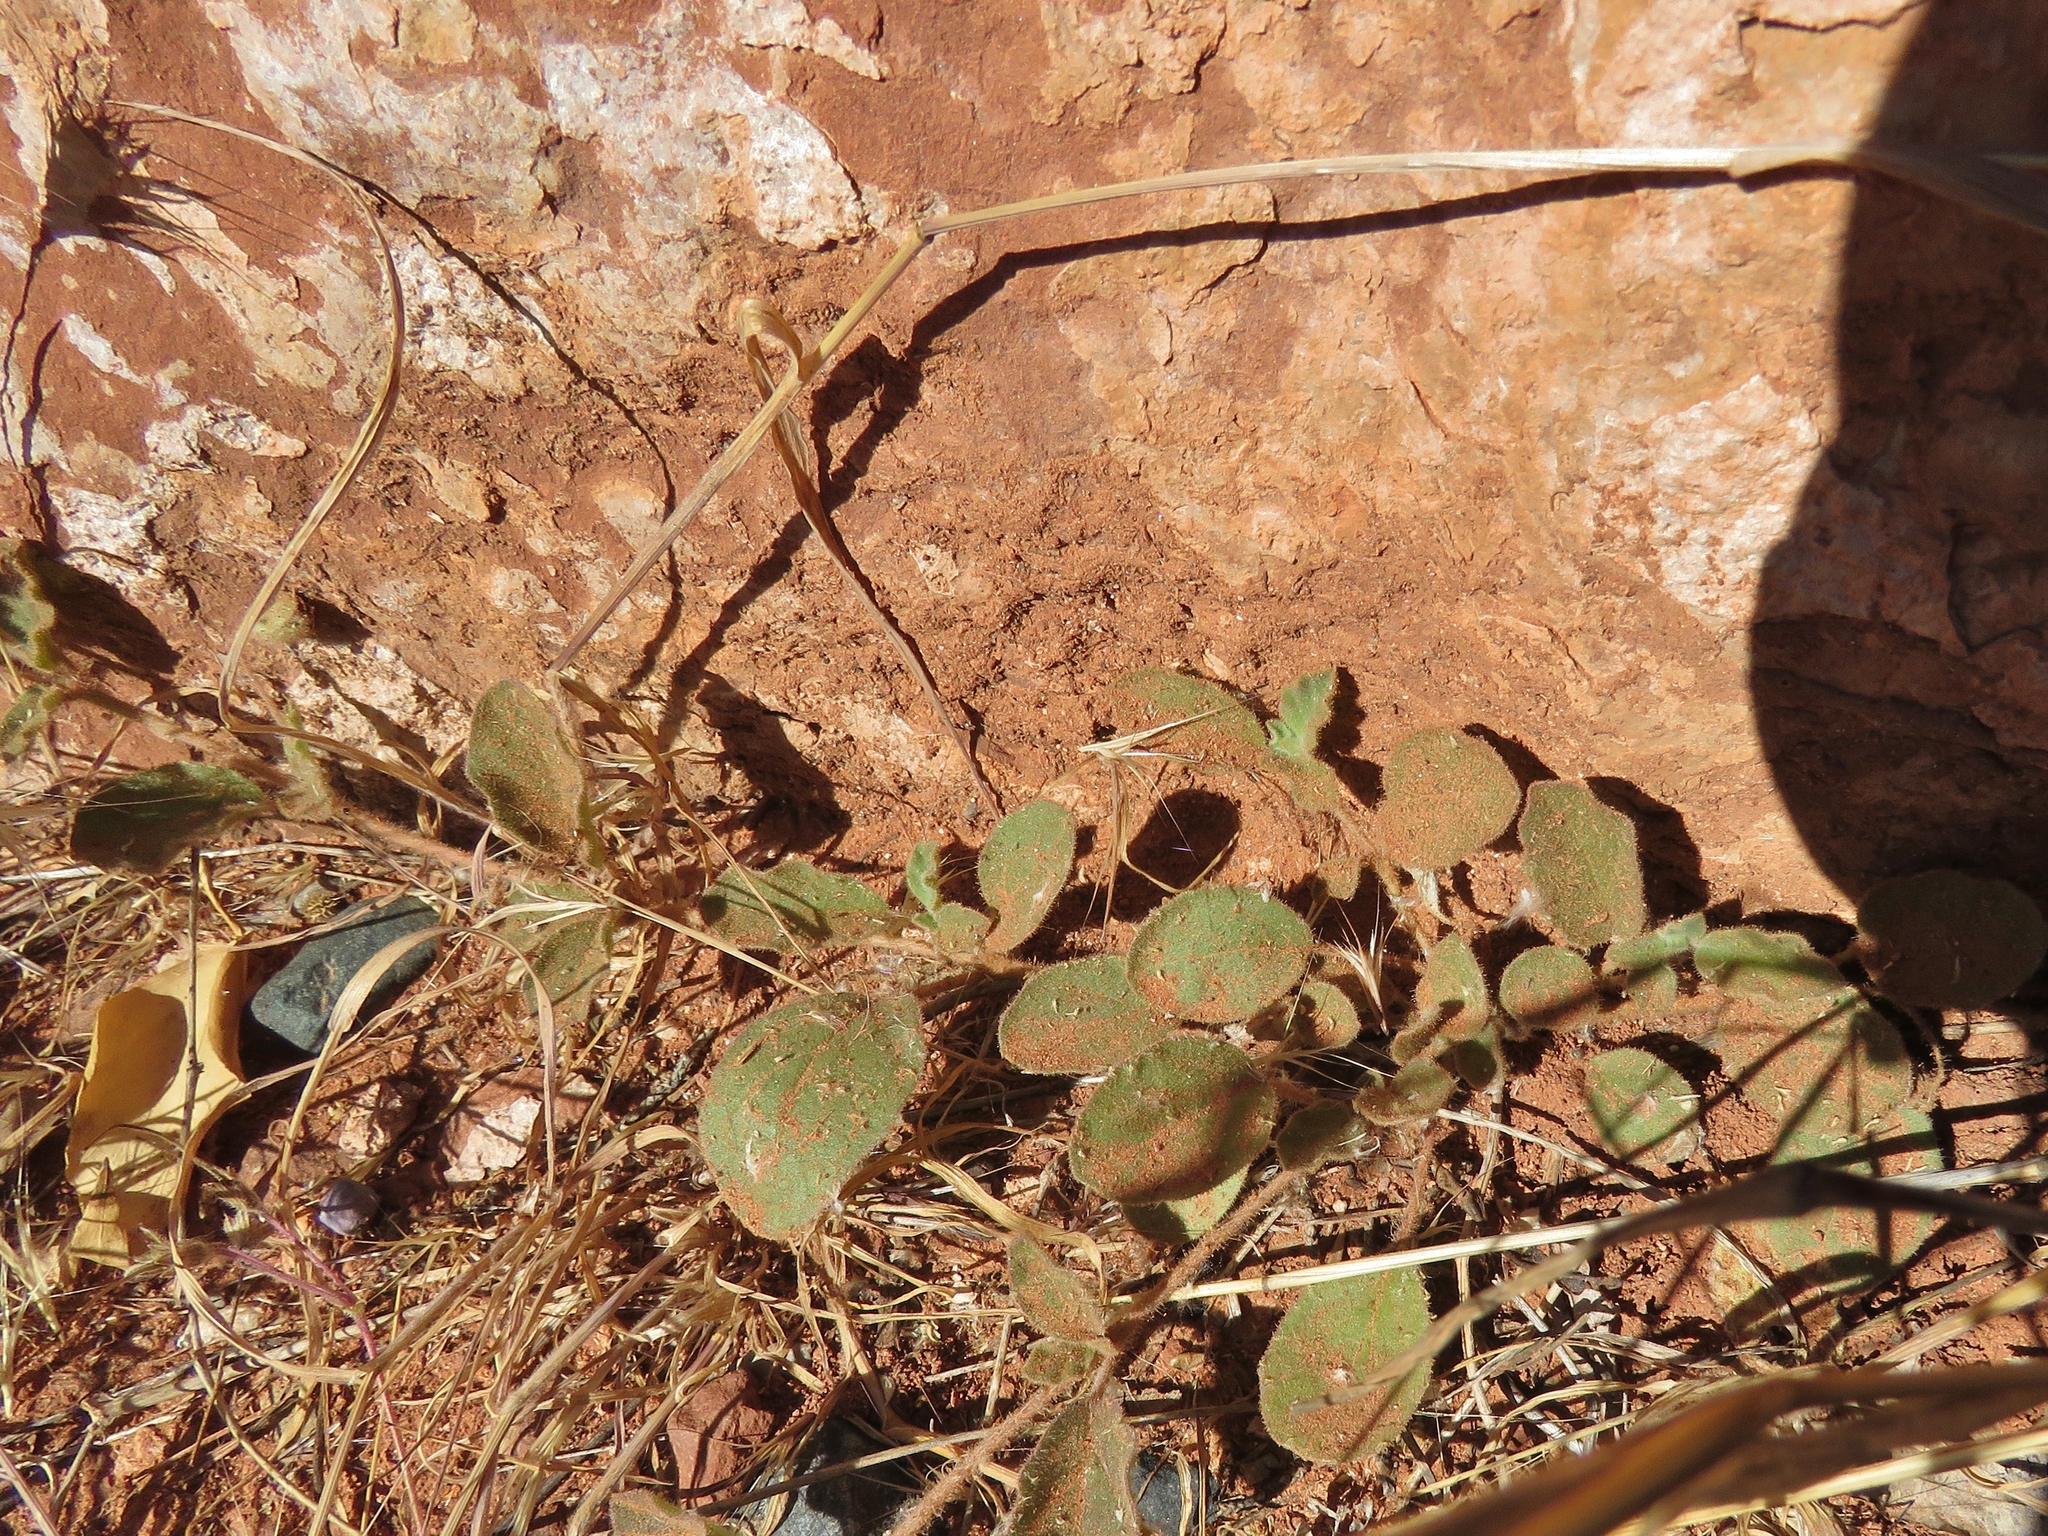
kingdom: Plantae
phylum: Tracheophyta
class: Magnoliopsida
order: Caryophyllales
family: Nyctaginaceae
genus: Allionia
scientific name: Allionia incarnata
